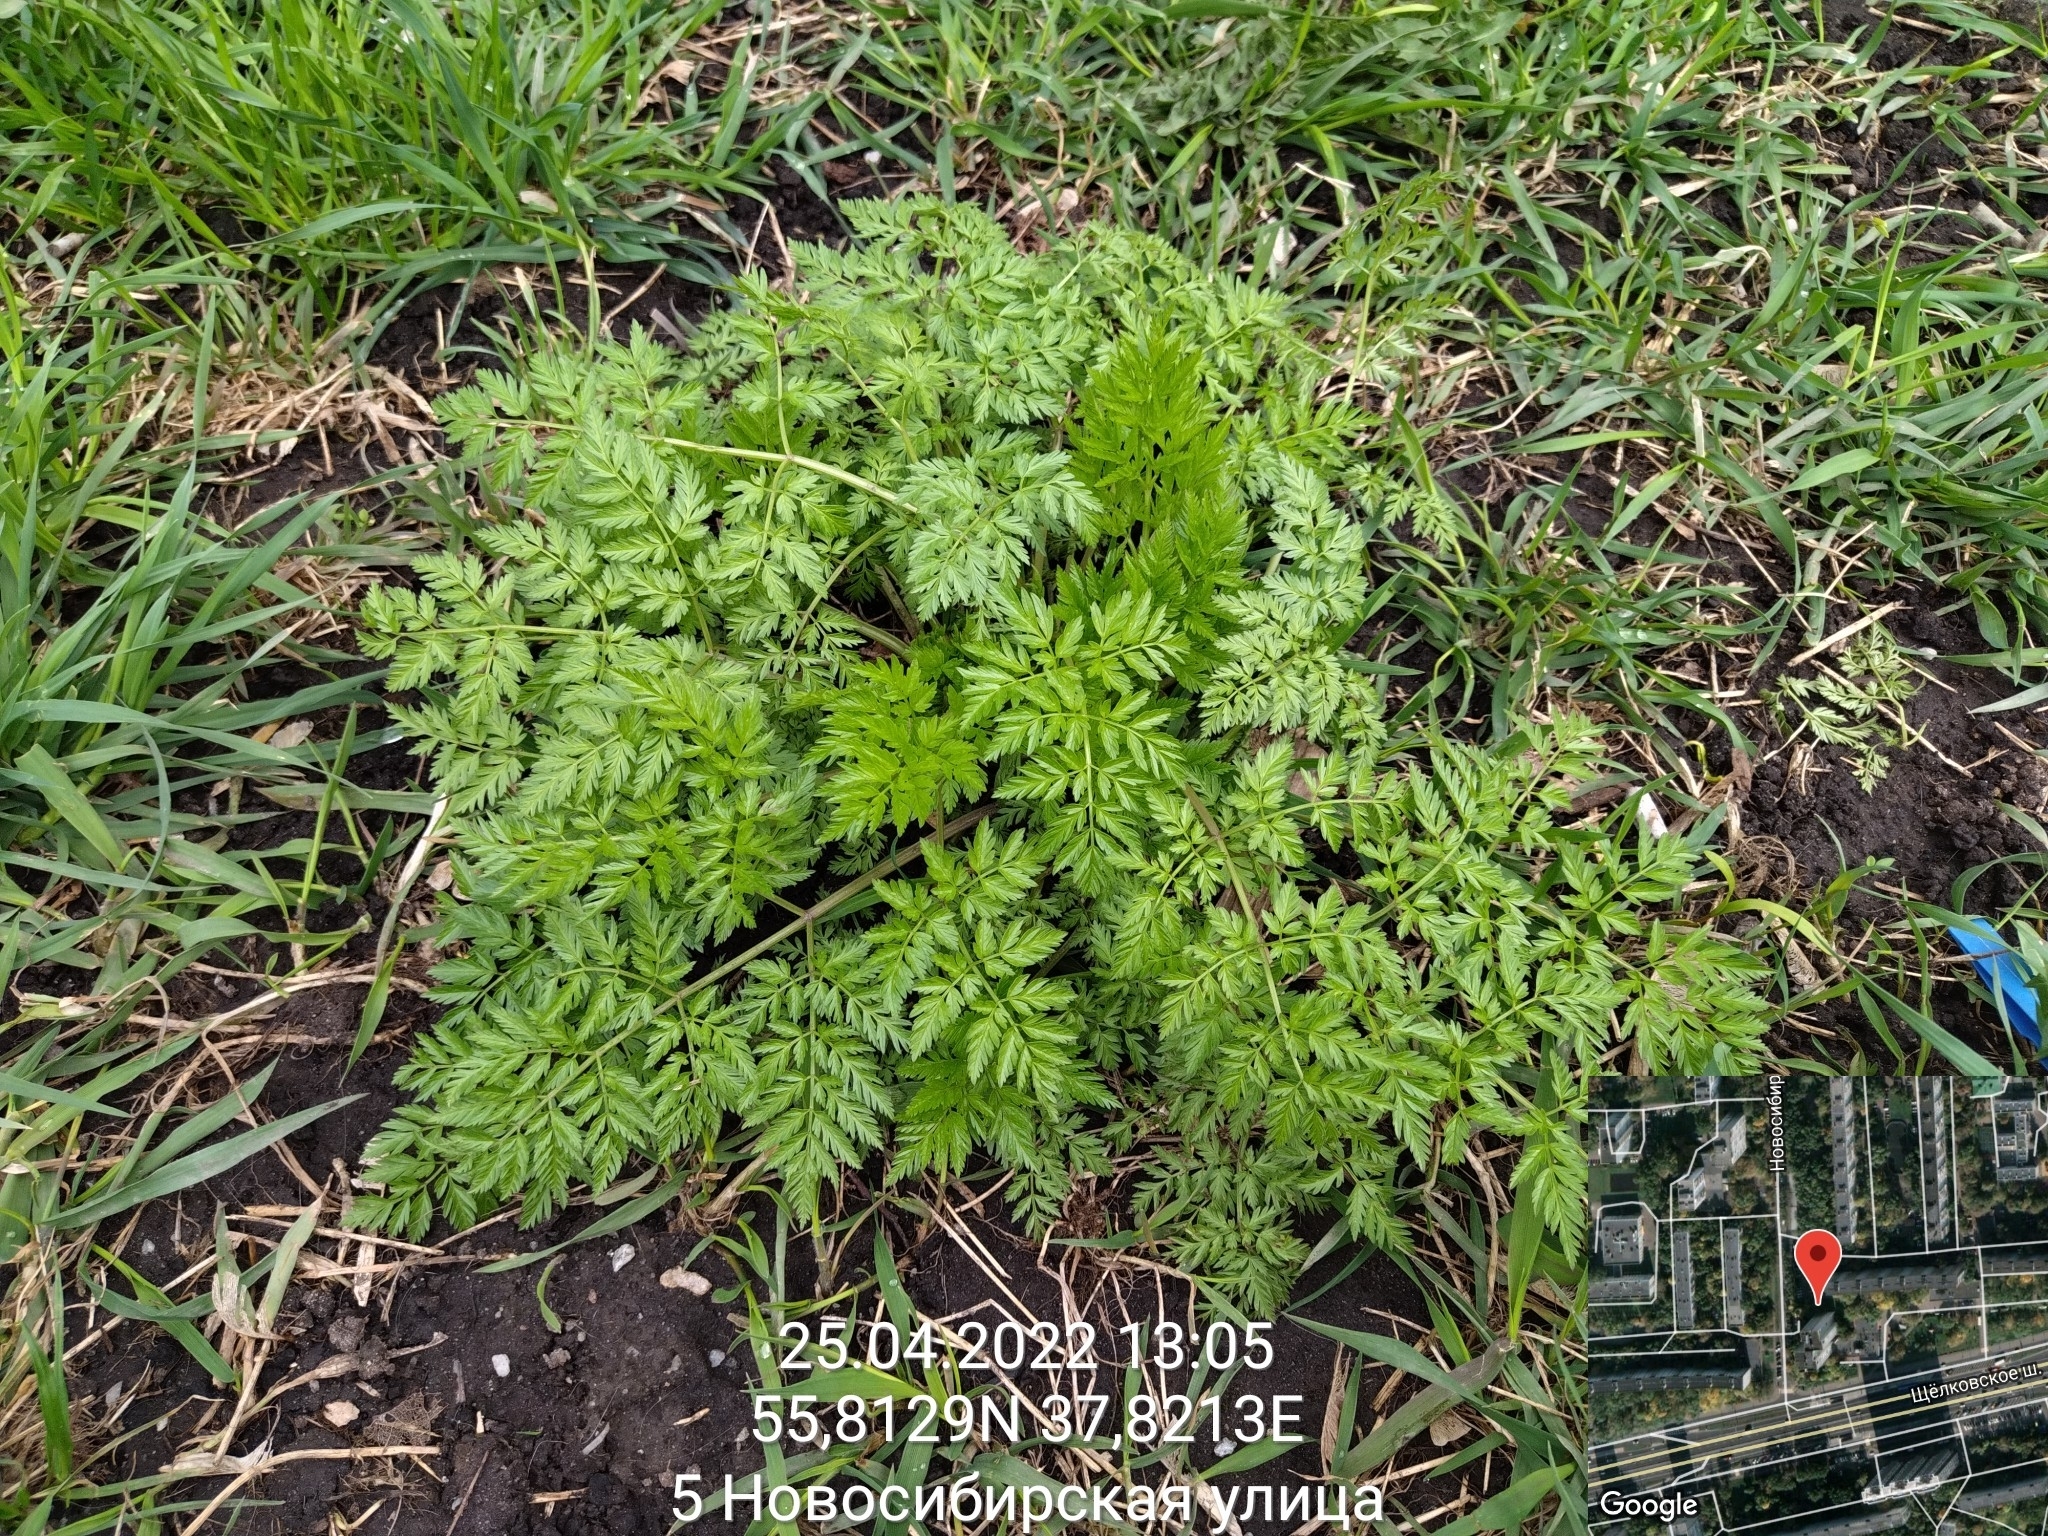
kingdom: Plantae
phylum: Tracheophyta
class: Magnoliopsida
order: Apiales
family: Apiaceae
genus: Anthriscus
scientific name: Anthriscus sylvestris
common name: Cow parsley
